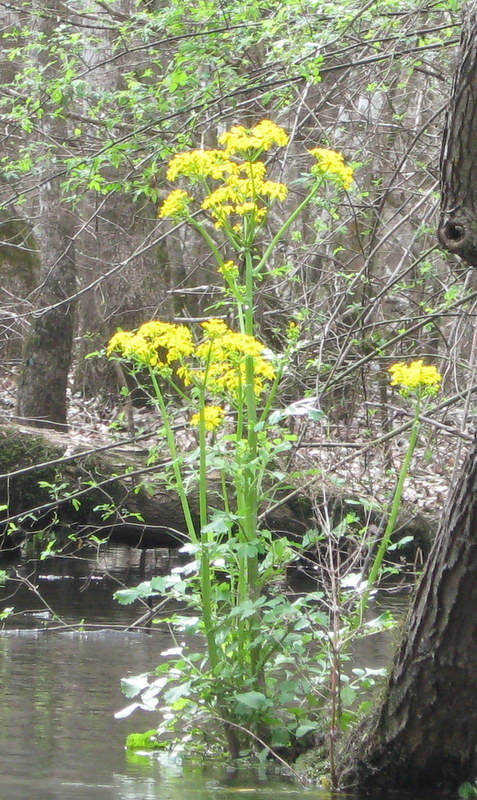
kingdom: Plantae
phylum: Tracheophyta
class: Magnoliopsida
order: Asterales
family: Asteraceae
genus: Packera
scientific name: Packera glabella
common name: Butterweed
